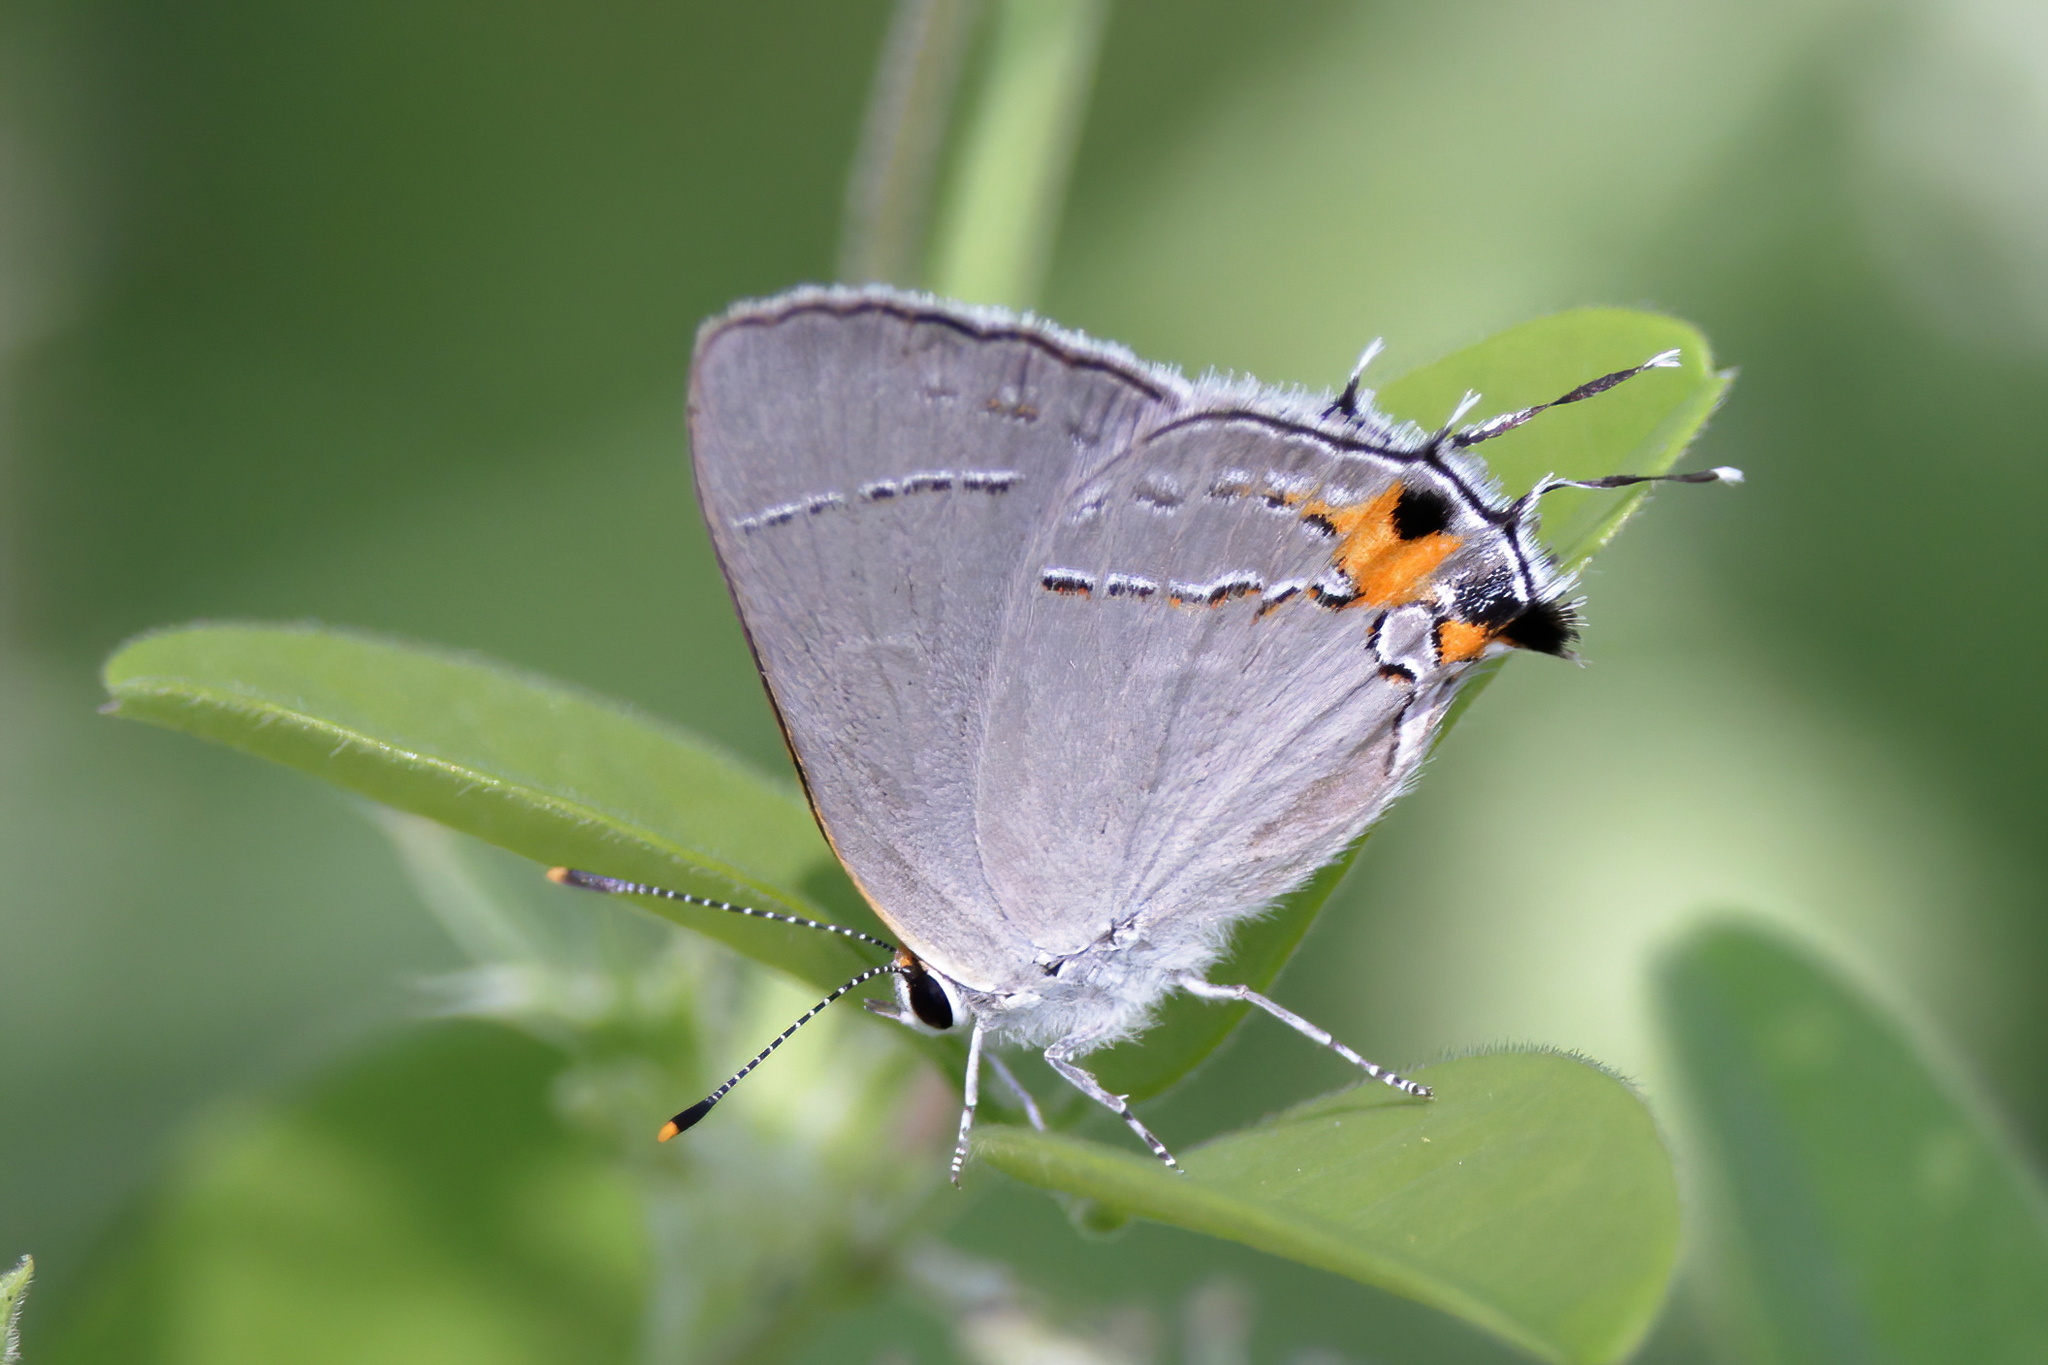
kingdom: Animalia
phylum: Arthropoda
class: Insecta
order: Lepidoptera
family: Lycaenidae
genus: Strymon
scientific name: Strymon melinus
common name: Gray hairstreak
